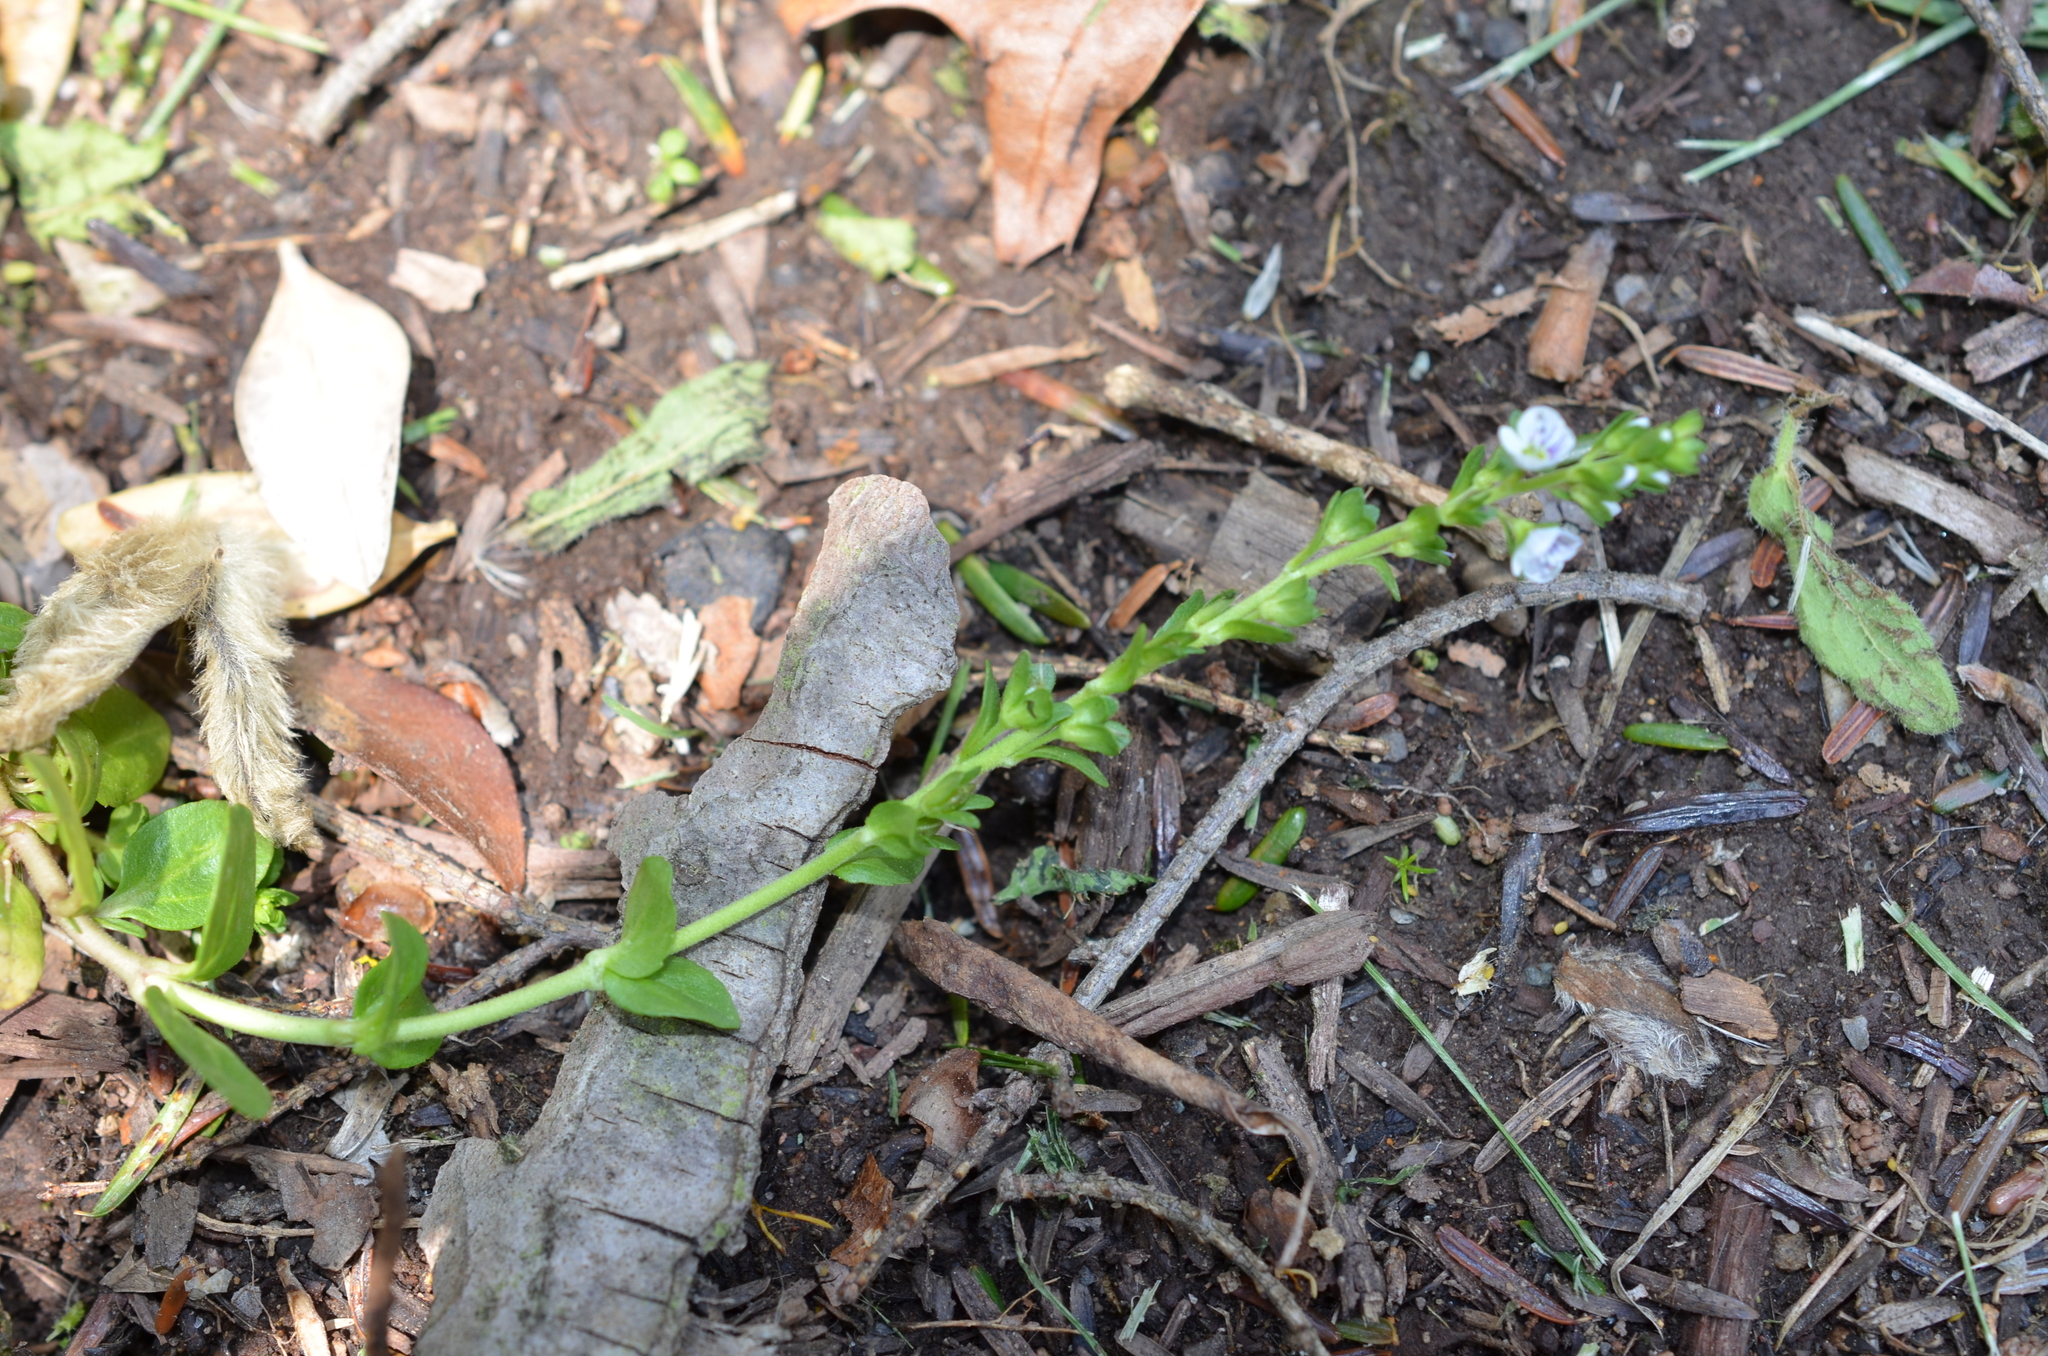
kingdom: Plantae
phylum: Tracheophyta
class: Magnoliopsida
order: Lamiales
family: Plantaginaceae
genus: Veronica
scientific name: Veronica serpyllifolia
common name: Thyme-leaved speedwell
